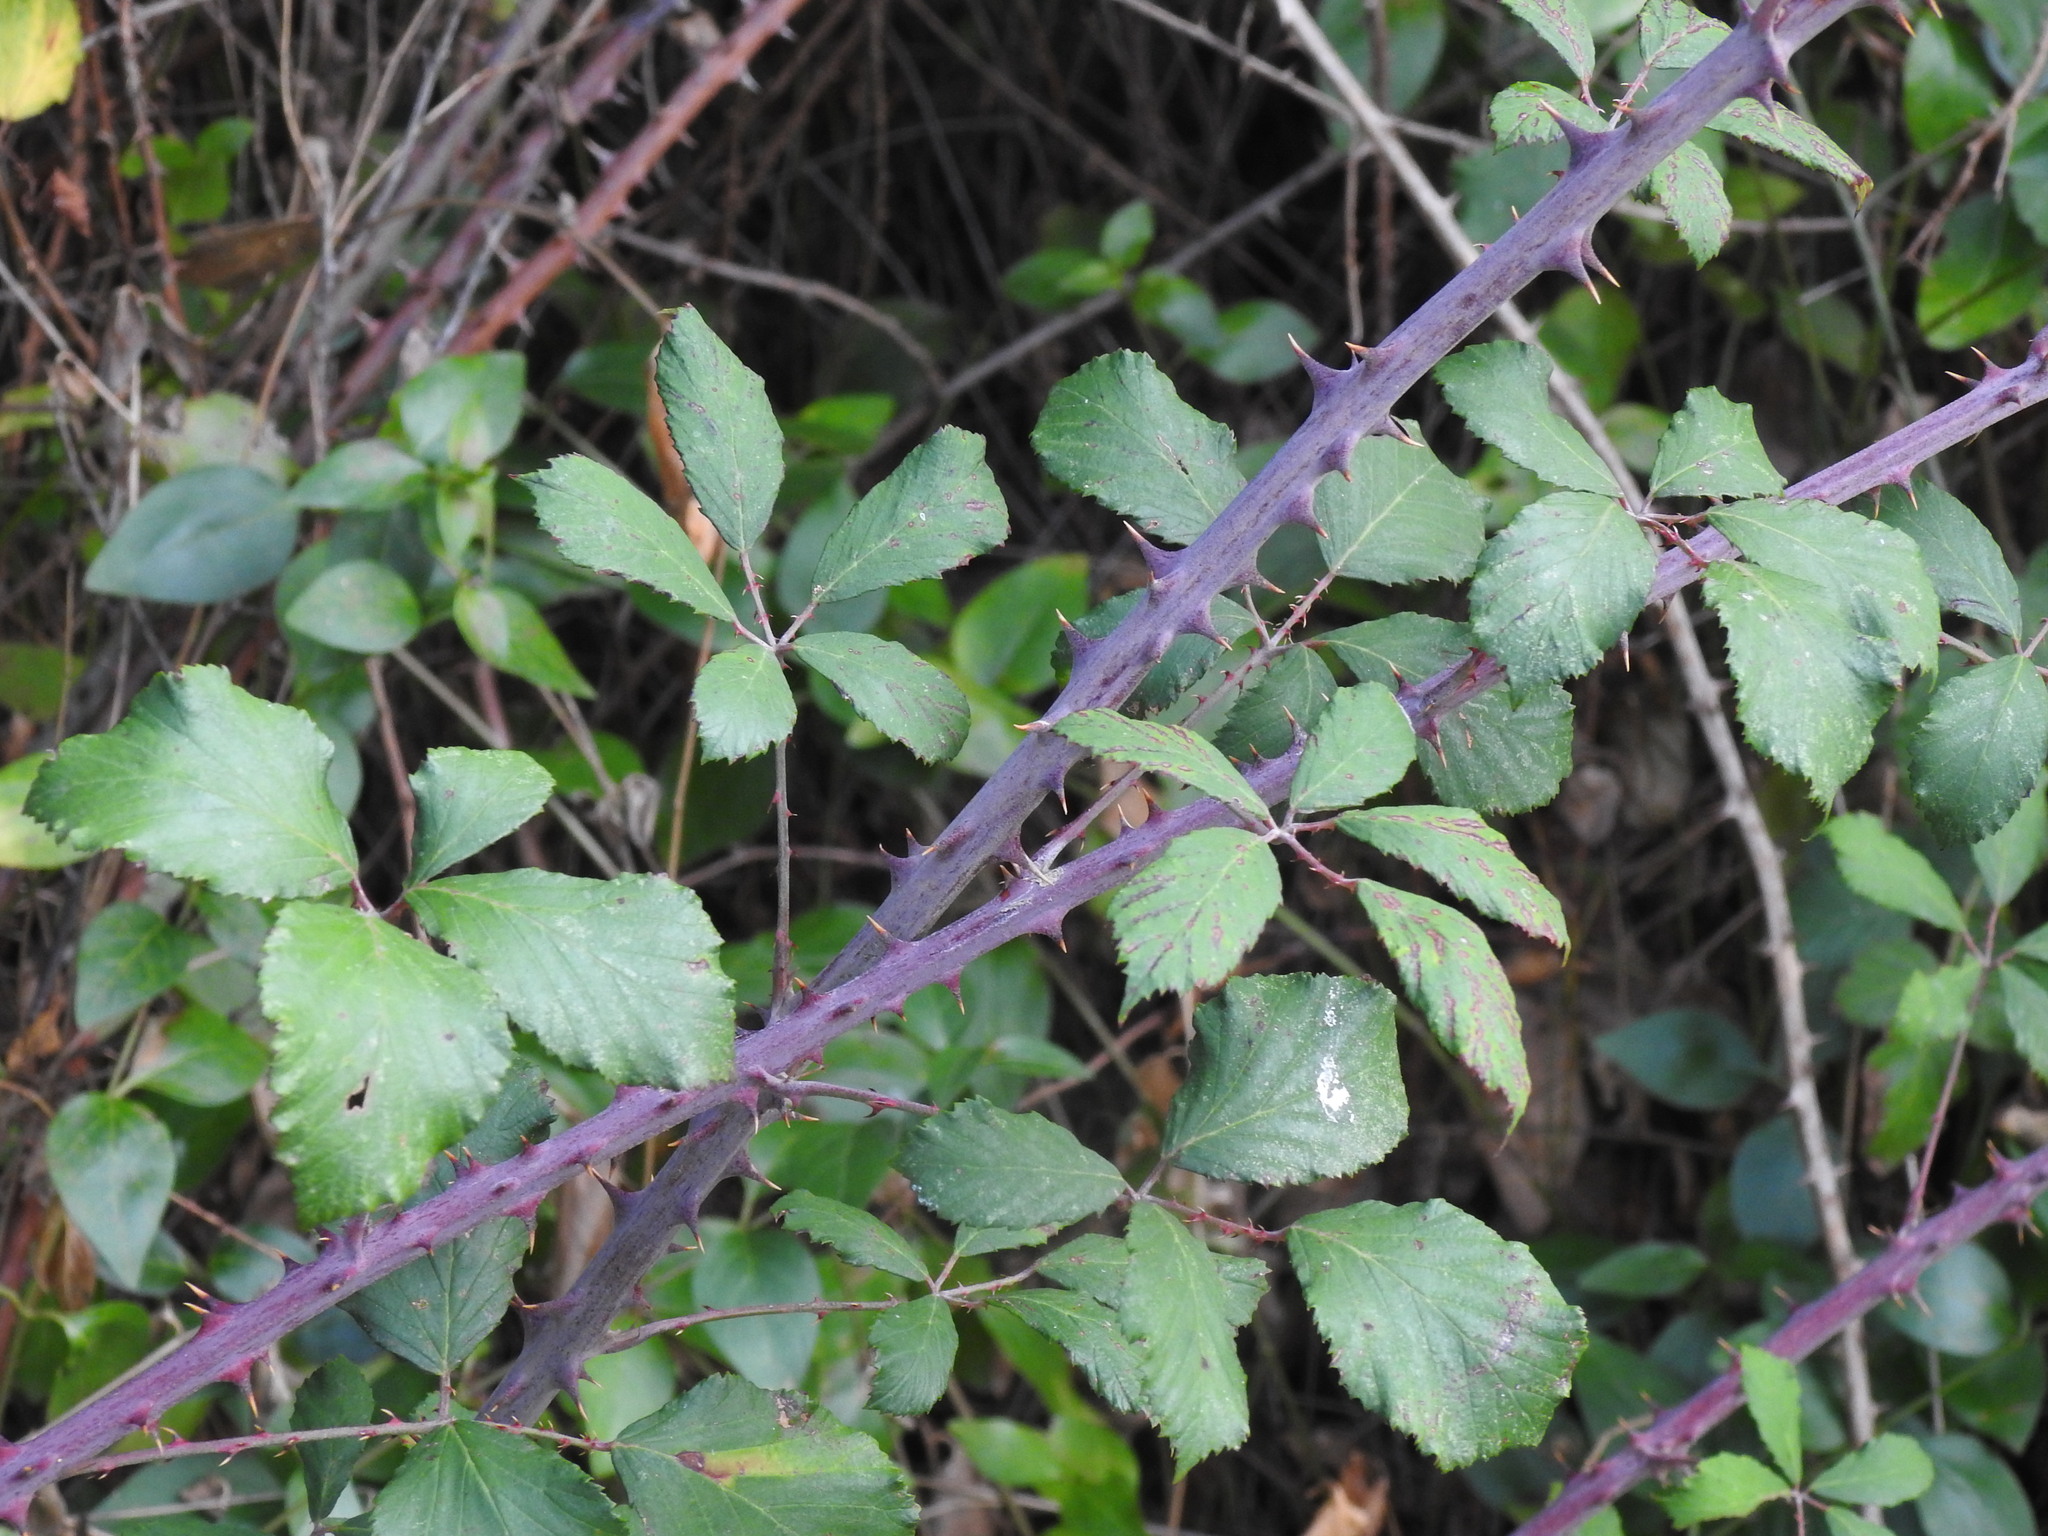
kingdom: Plantae
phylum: Tracheophyta
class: Magnoliopsida
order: Rosales
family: Rosaceae
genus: Rubus
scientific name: Rubus ulmifolius
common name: Elmleaf blackberry
